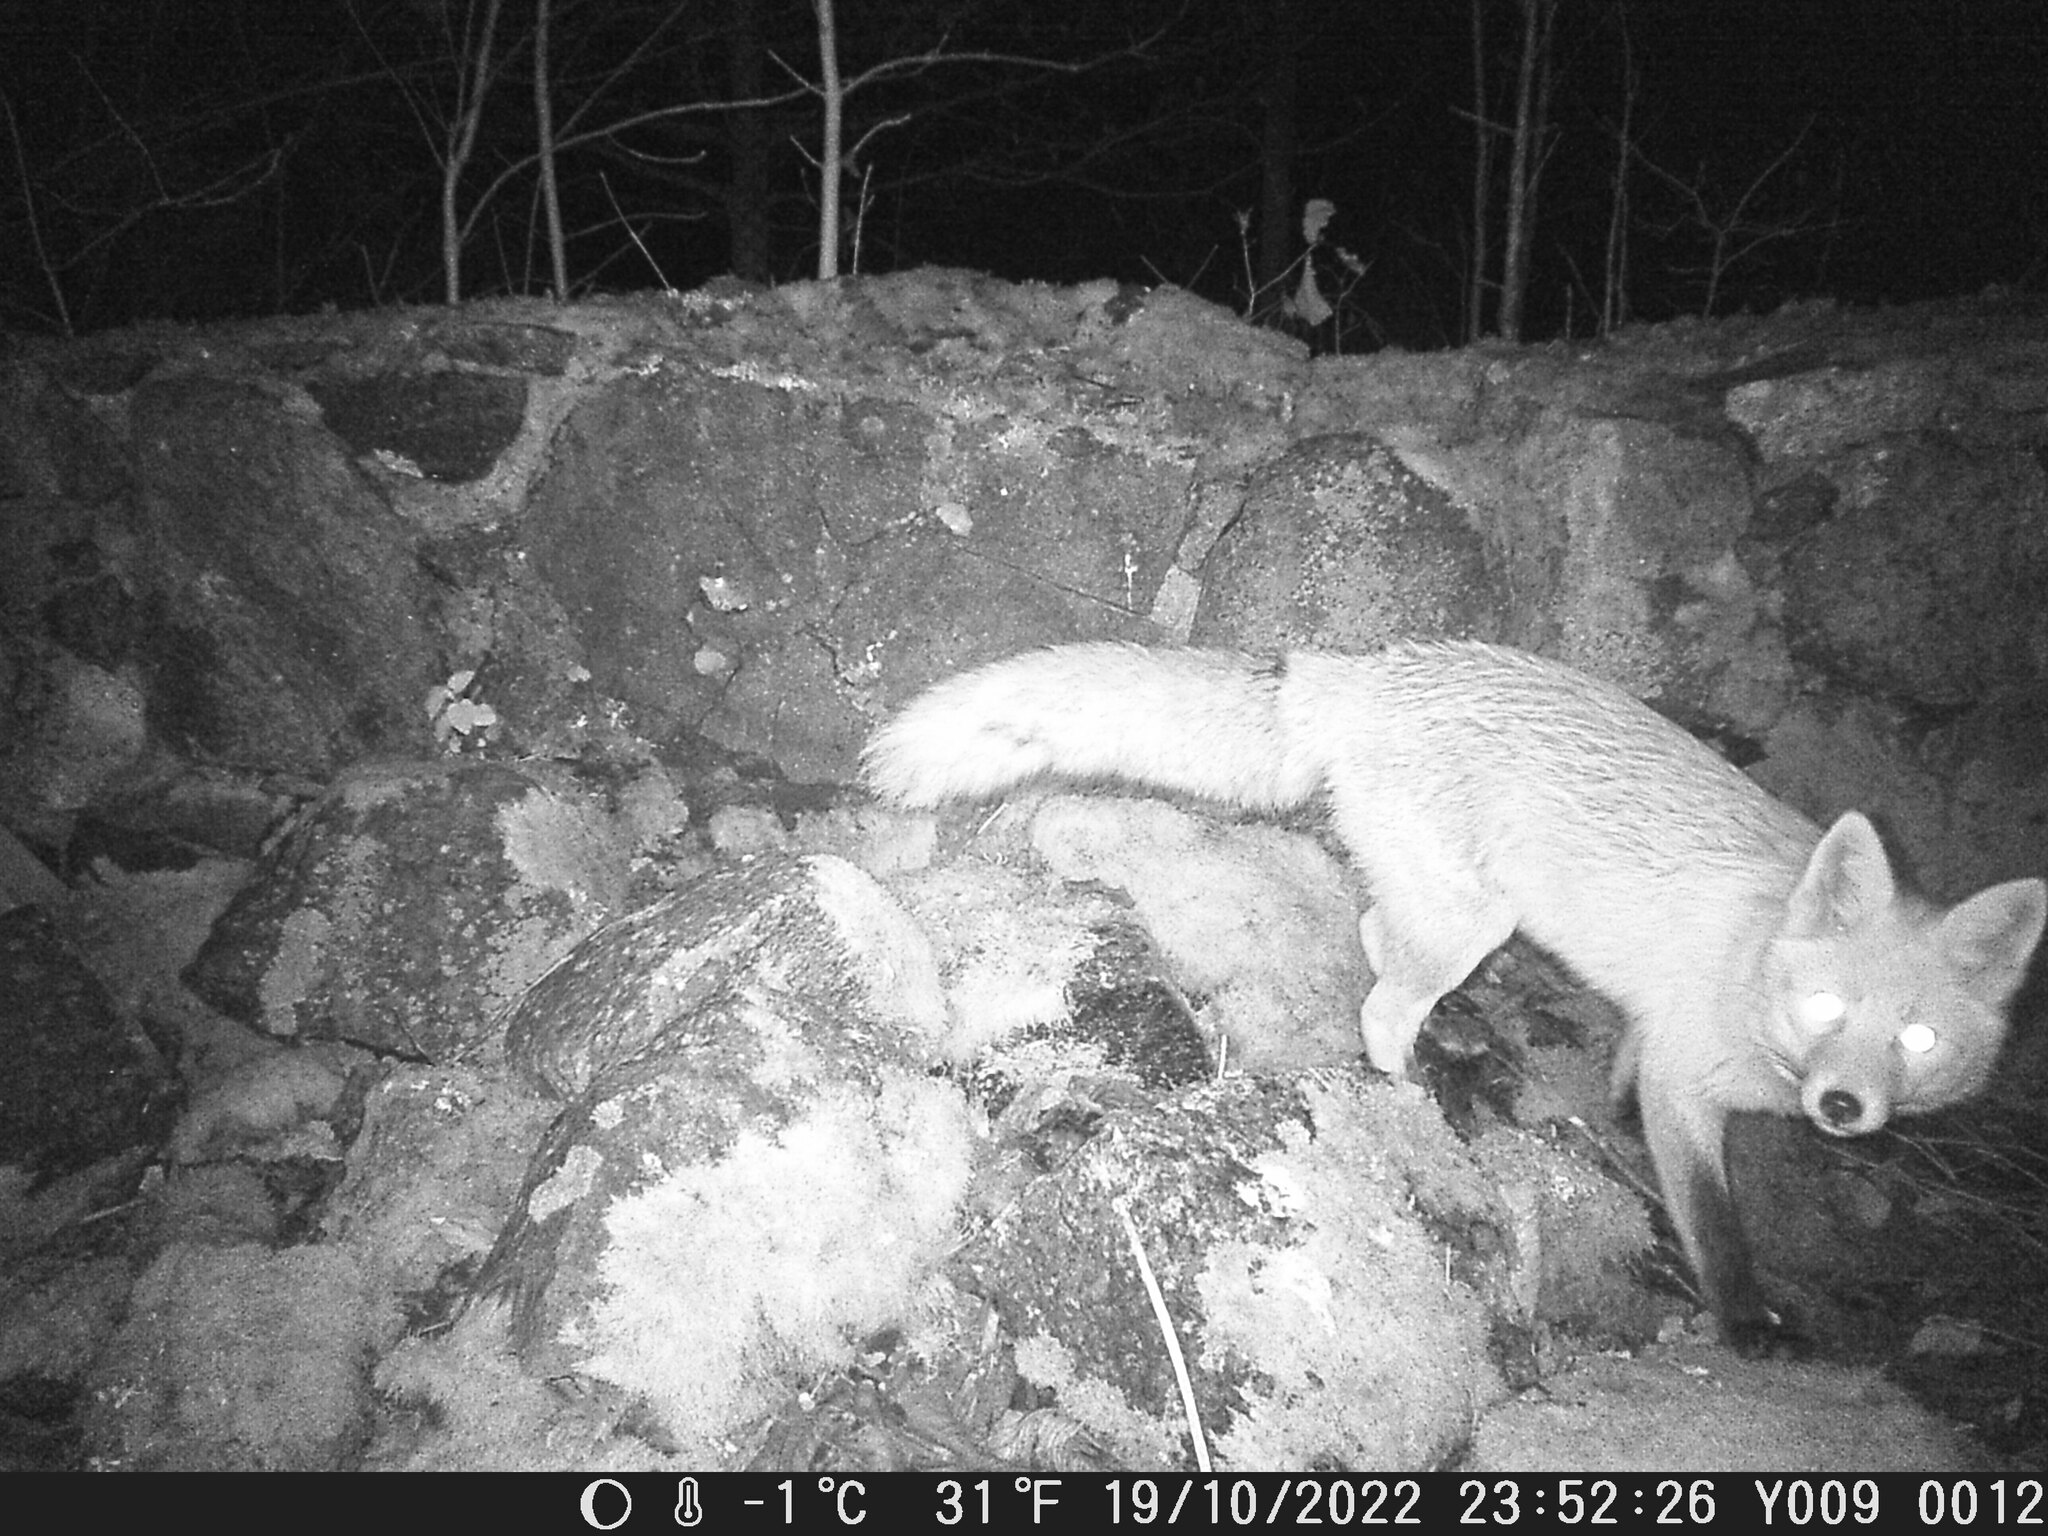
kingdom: Animalia
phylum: Chordata
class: Mammalia
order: Carnivora
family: Canidae
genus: Vulpes
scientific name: Vulpes vulpes
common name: Red fox
